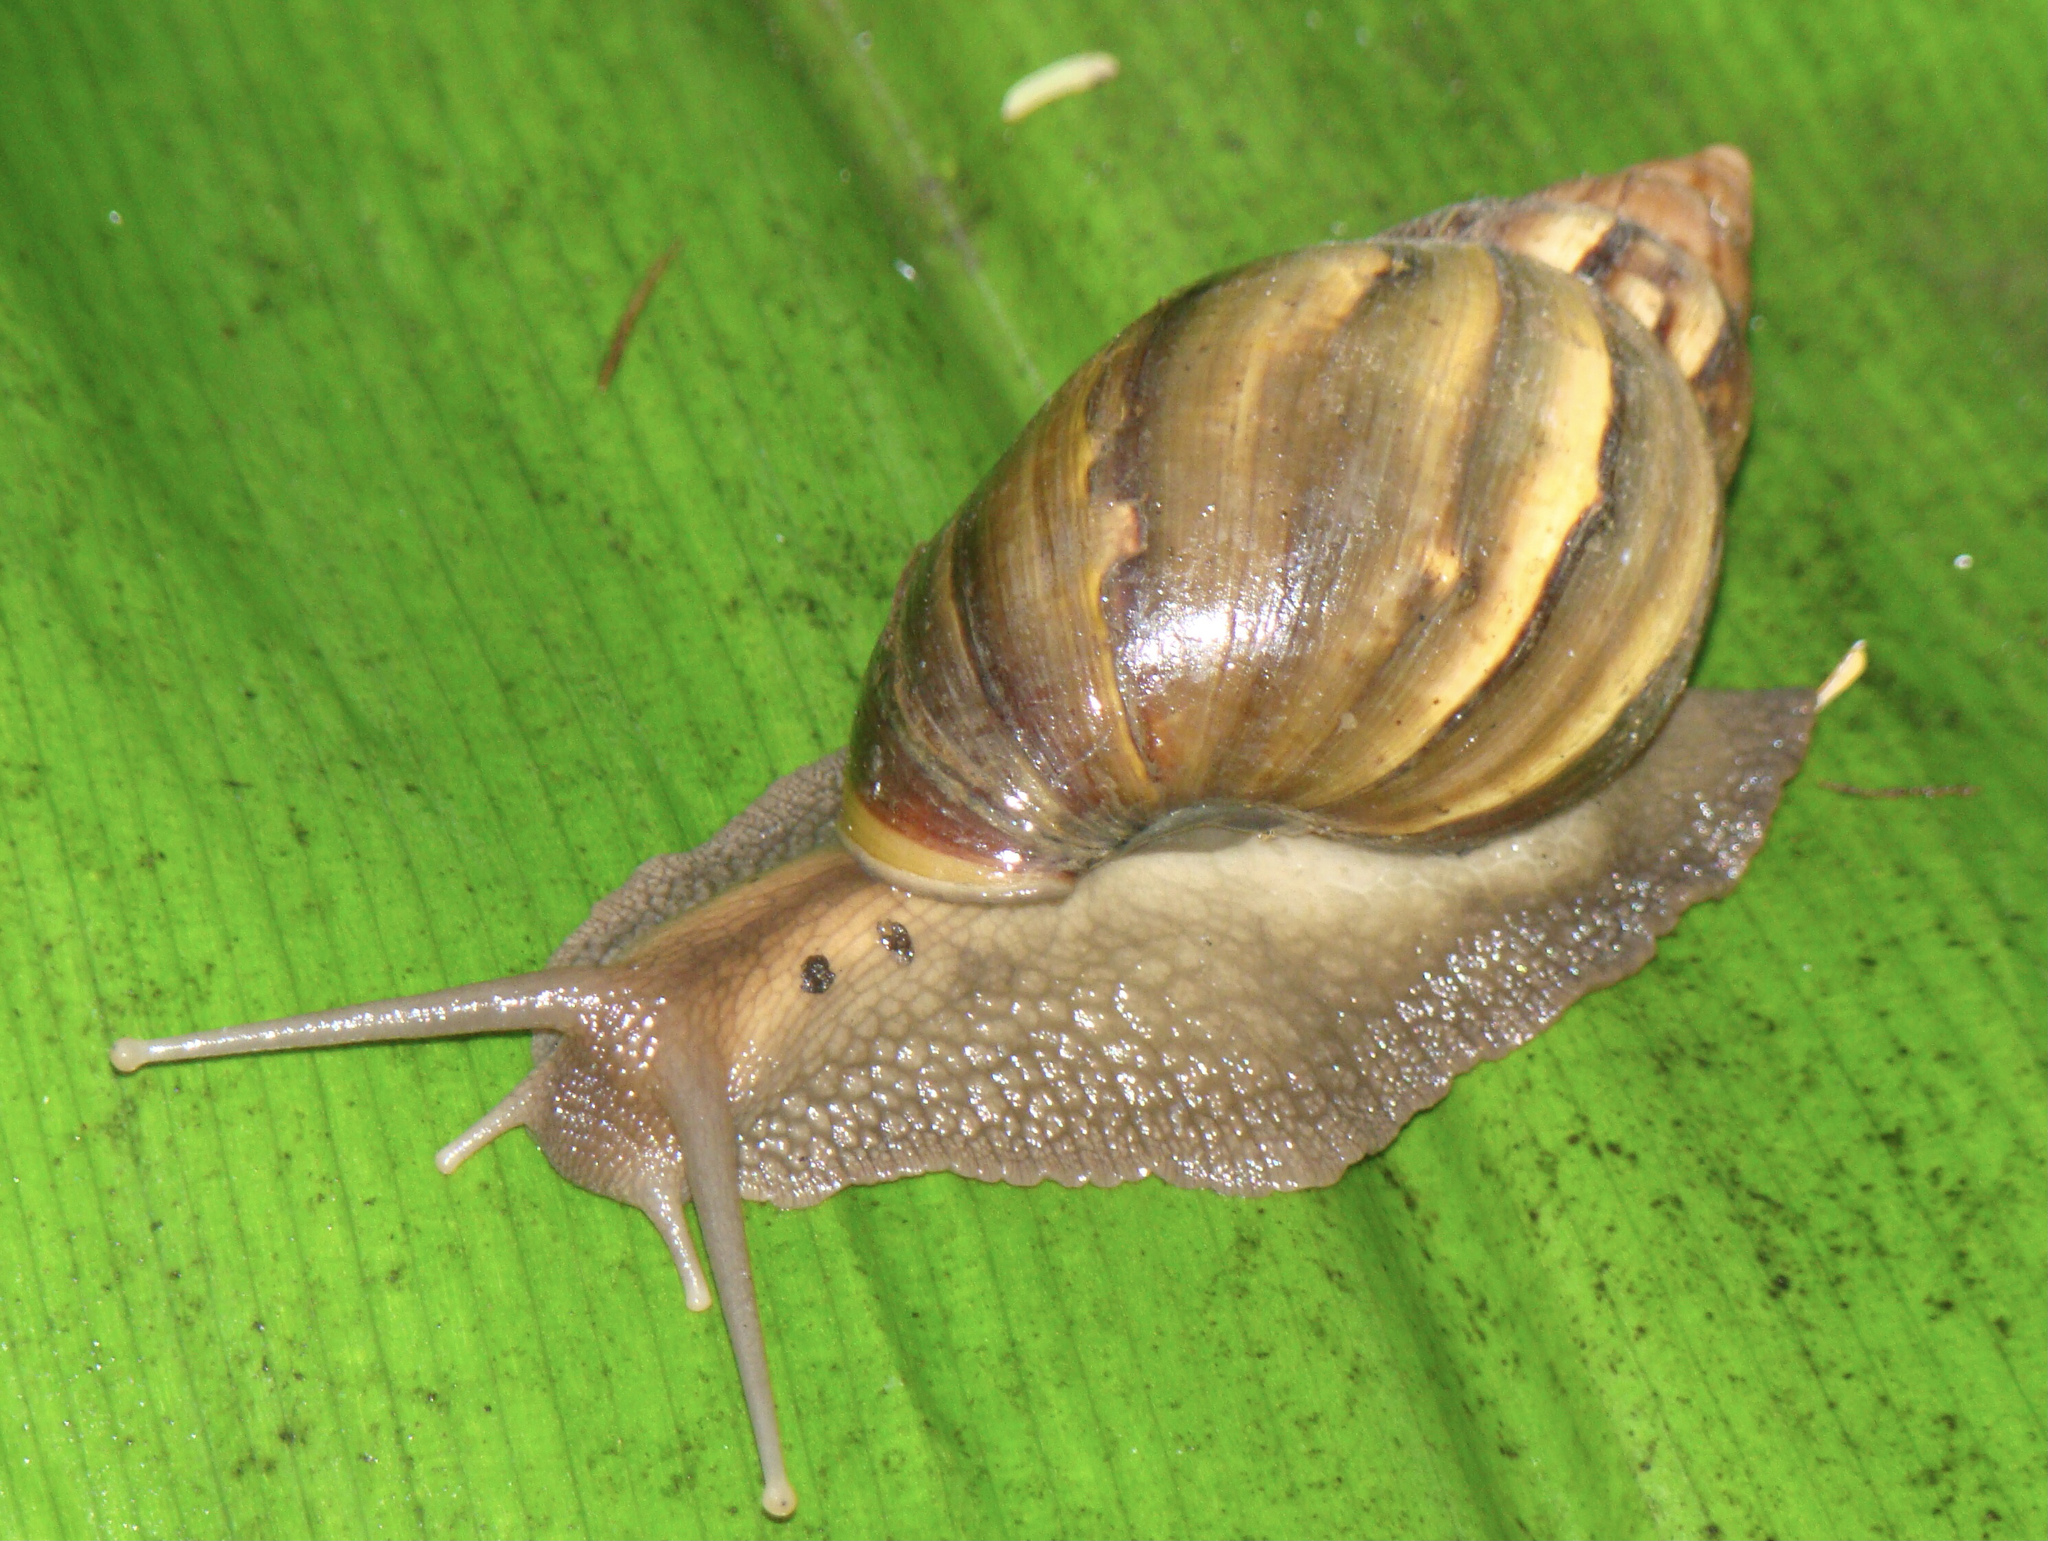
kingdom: Animalia
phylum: Mollusca
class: Gastropoda
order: Stylommatophora
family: Achatinidae
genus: Lissachatina
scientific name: Lissachatina fulica
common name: Giant african snail
